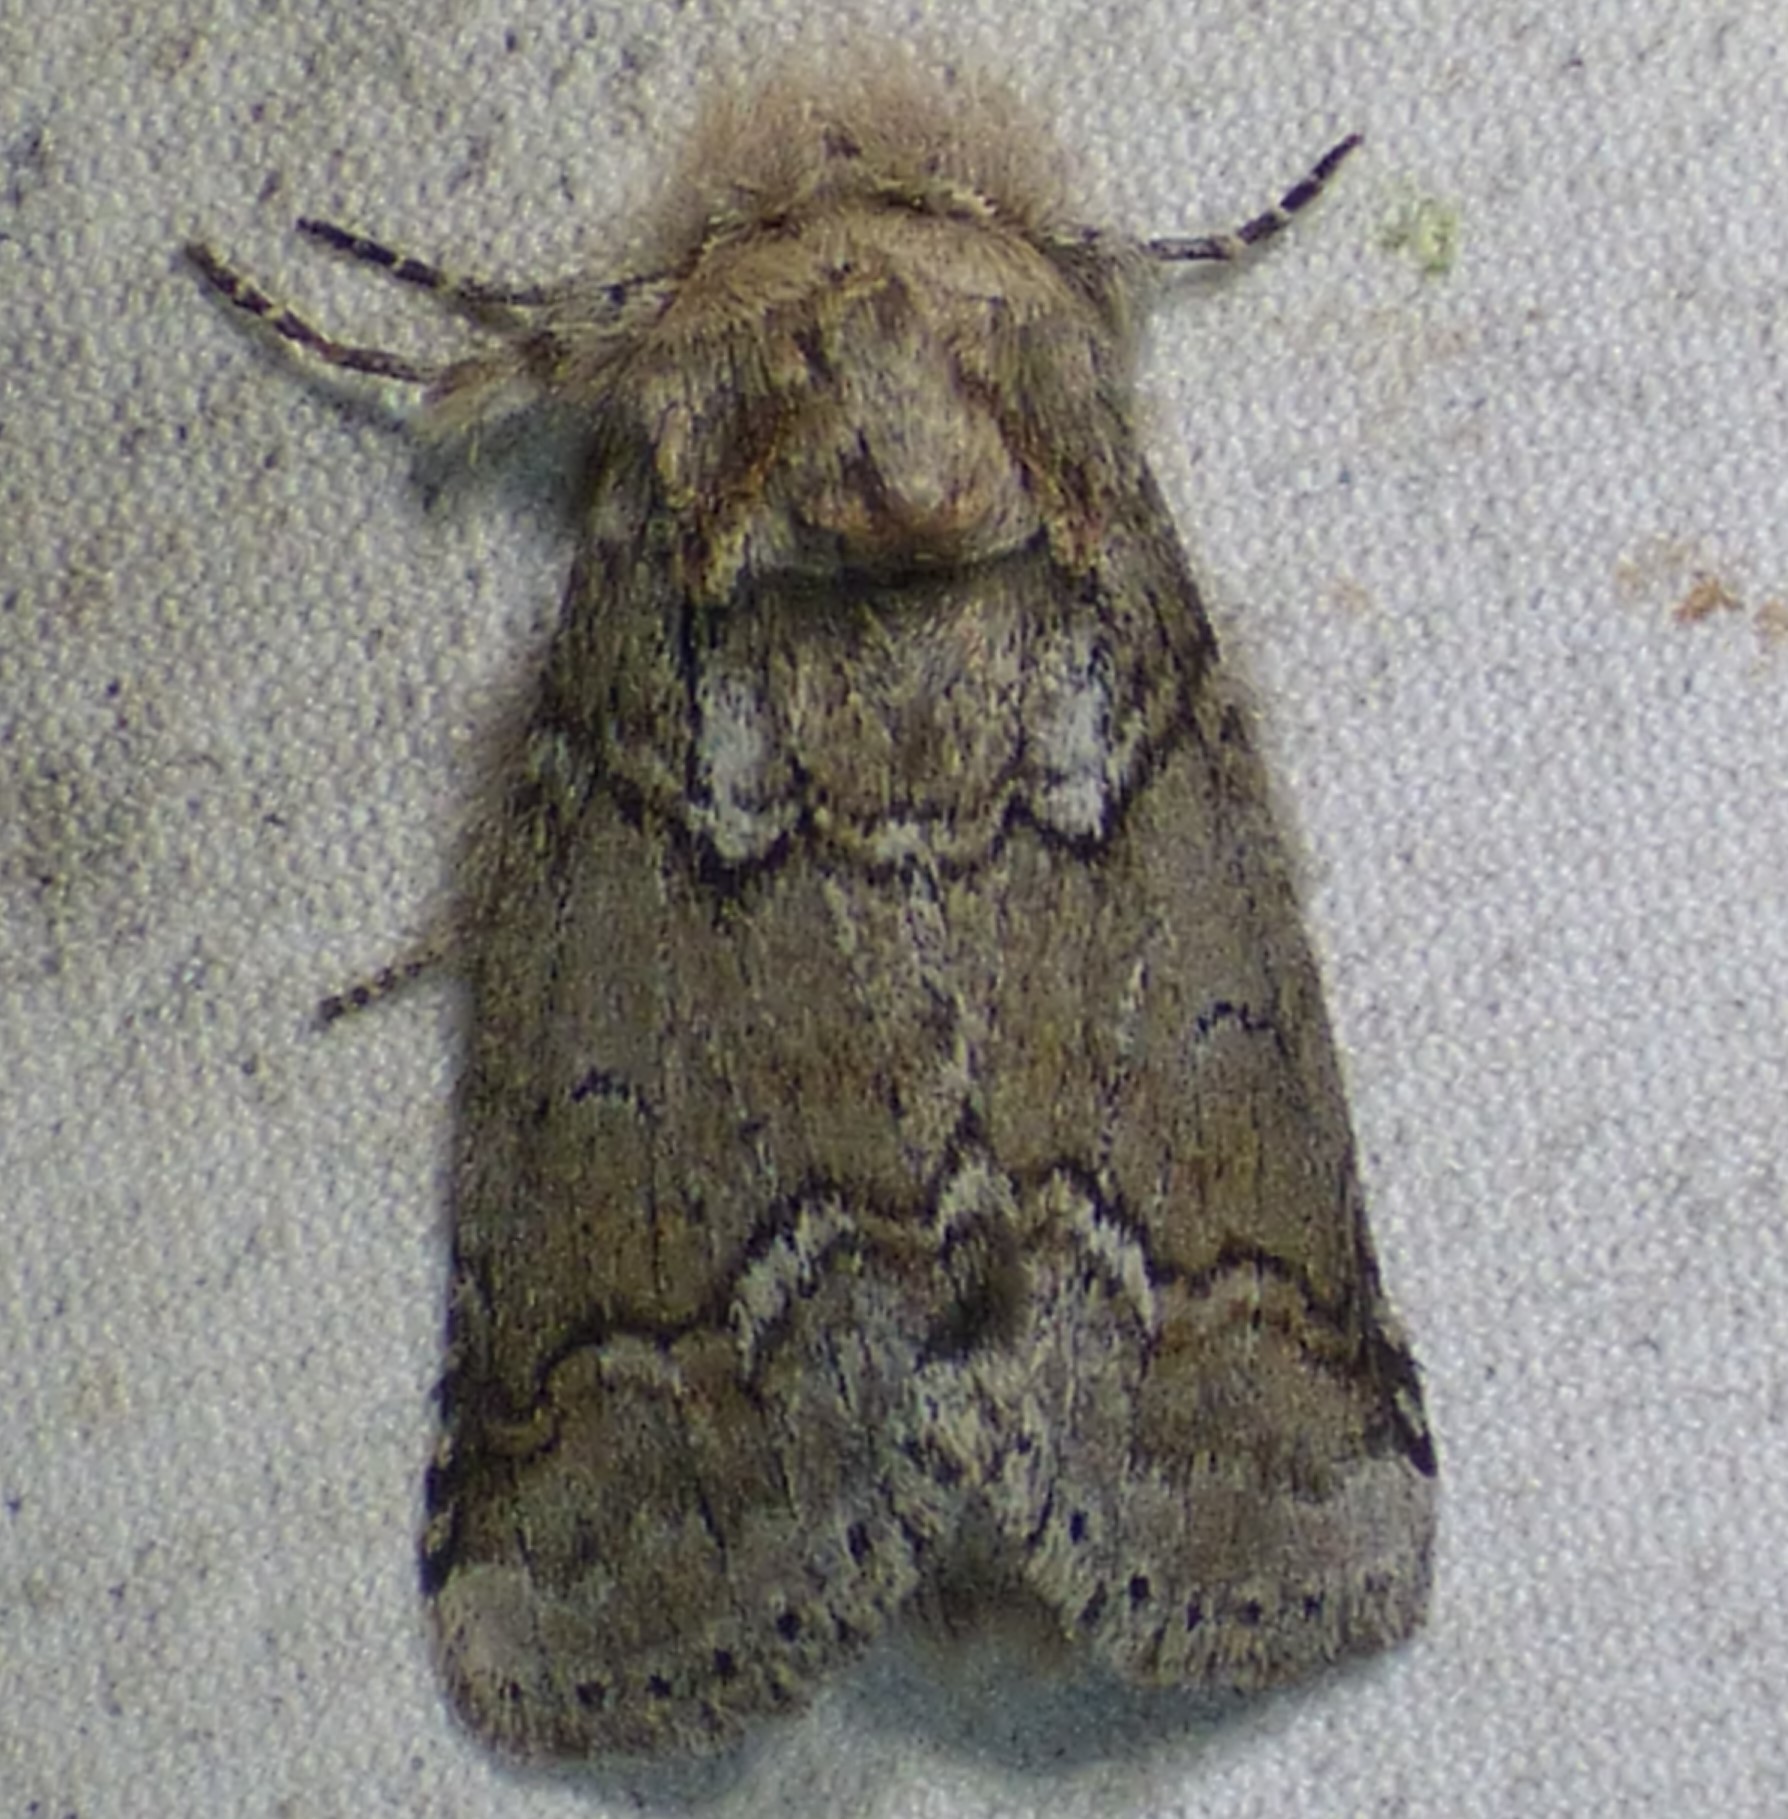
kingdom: Animalia
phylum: Arthropoda
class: Insecta
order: Lepidoptera
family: Notodontidae
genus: Lochmaeus
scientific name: Lochmaeus bilineata
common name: Double-lined prominent
